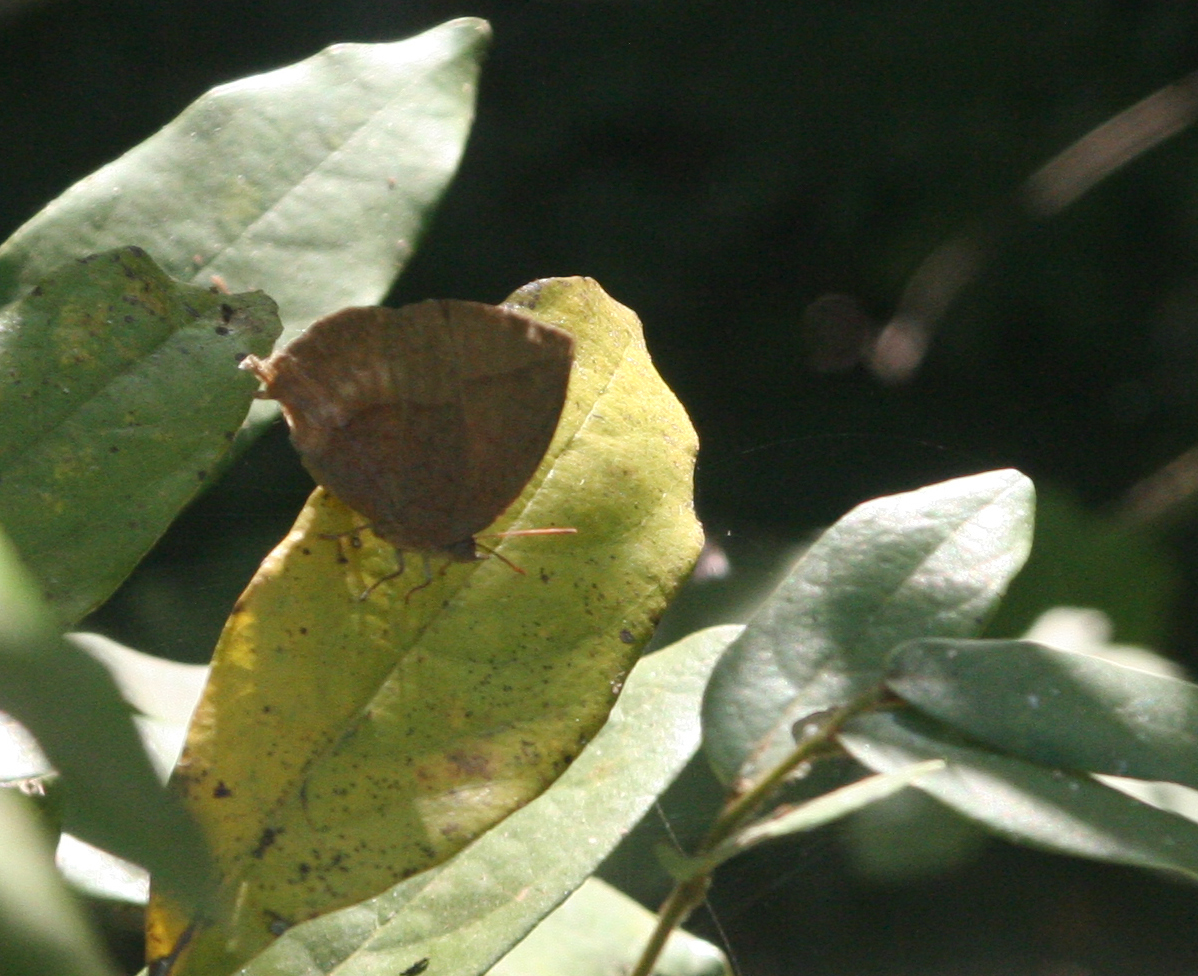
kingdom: Animalia
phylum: Arthropoda
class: Insecta
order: Lepidoptera
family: Lycaenidae
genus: Amblypodia
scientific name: Amblypodia anita
